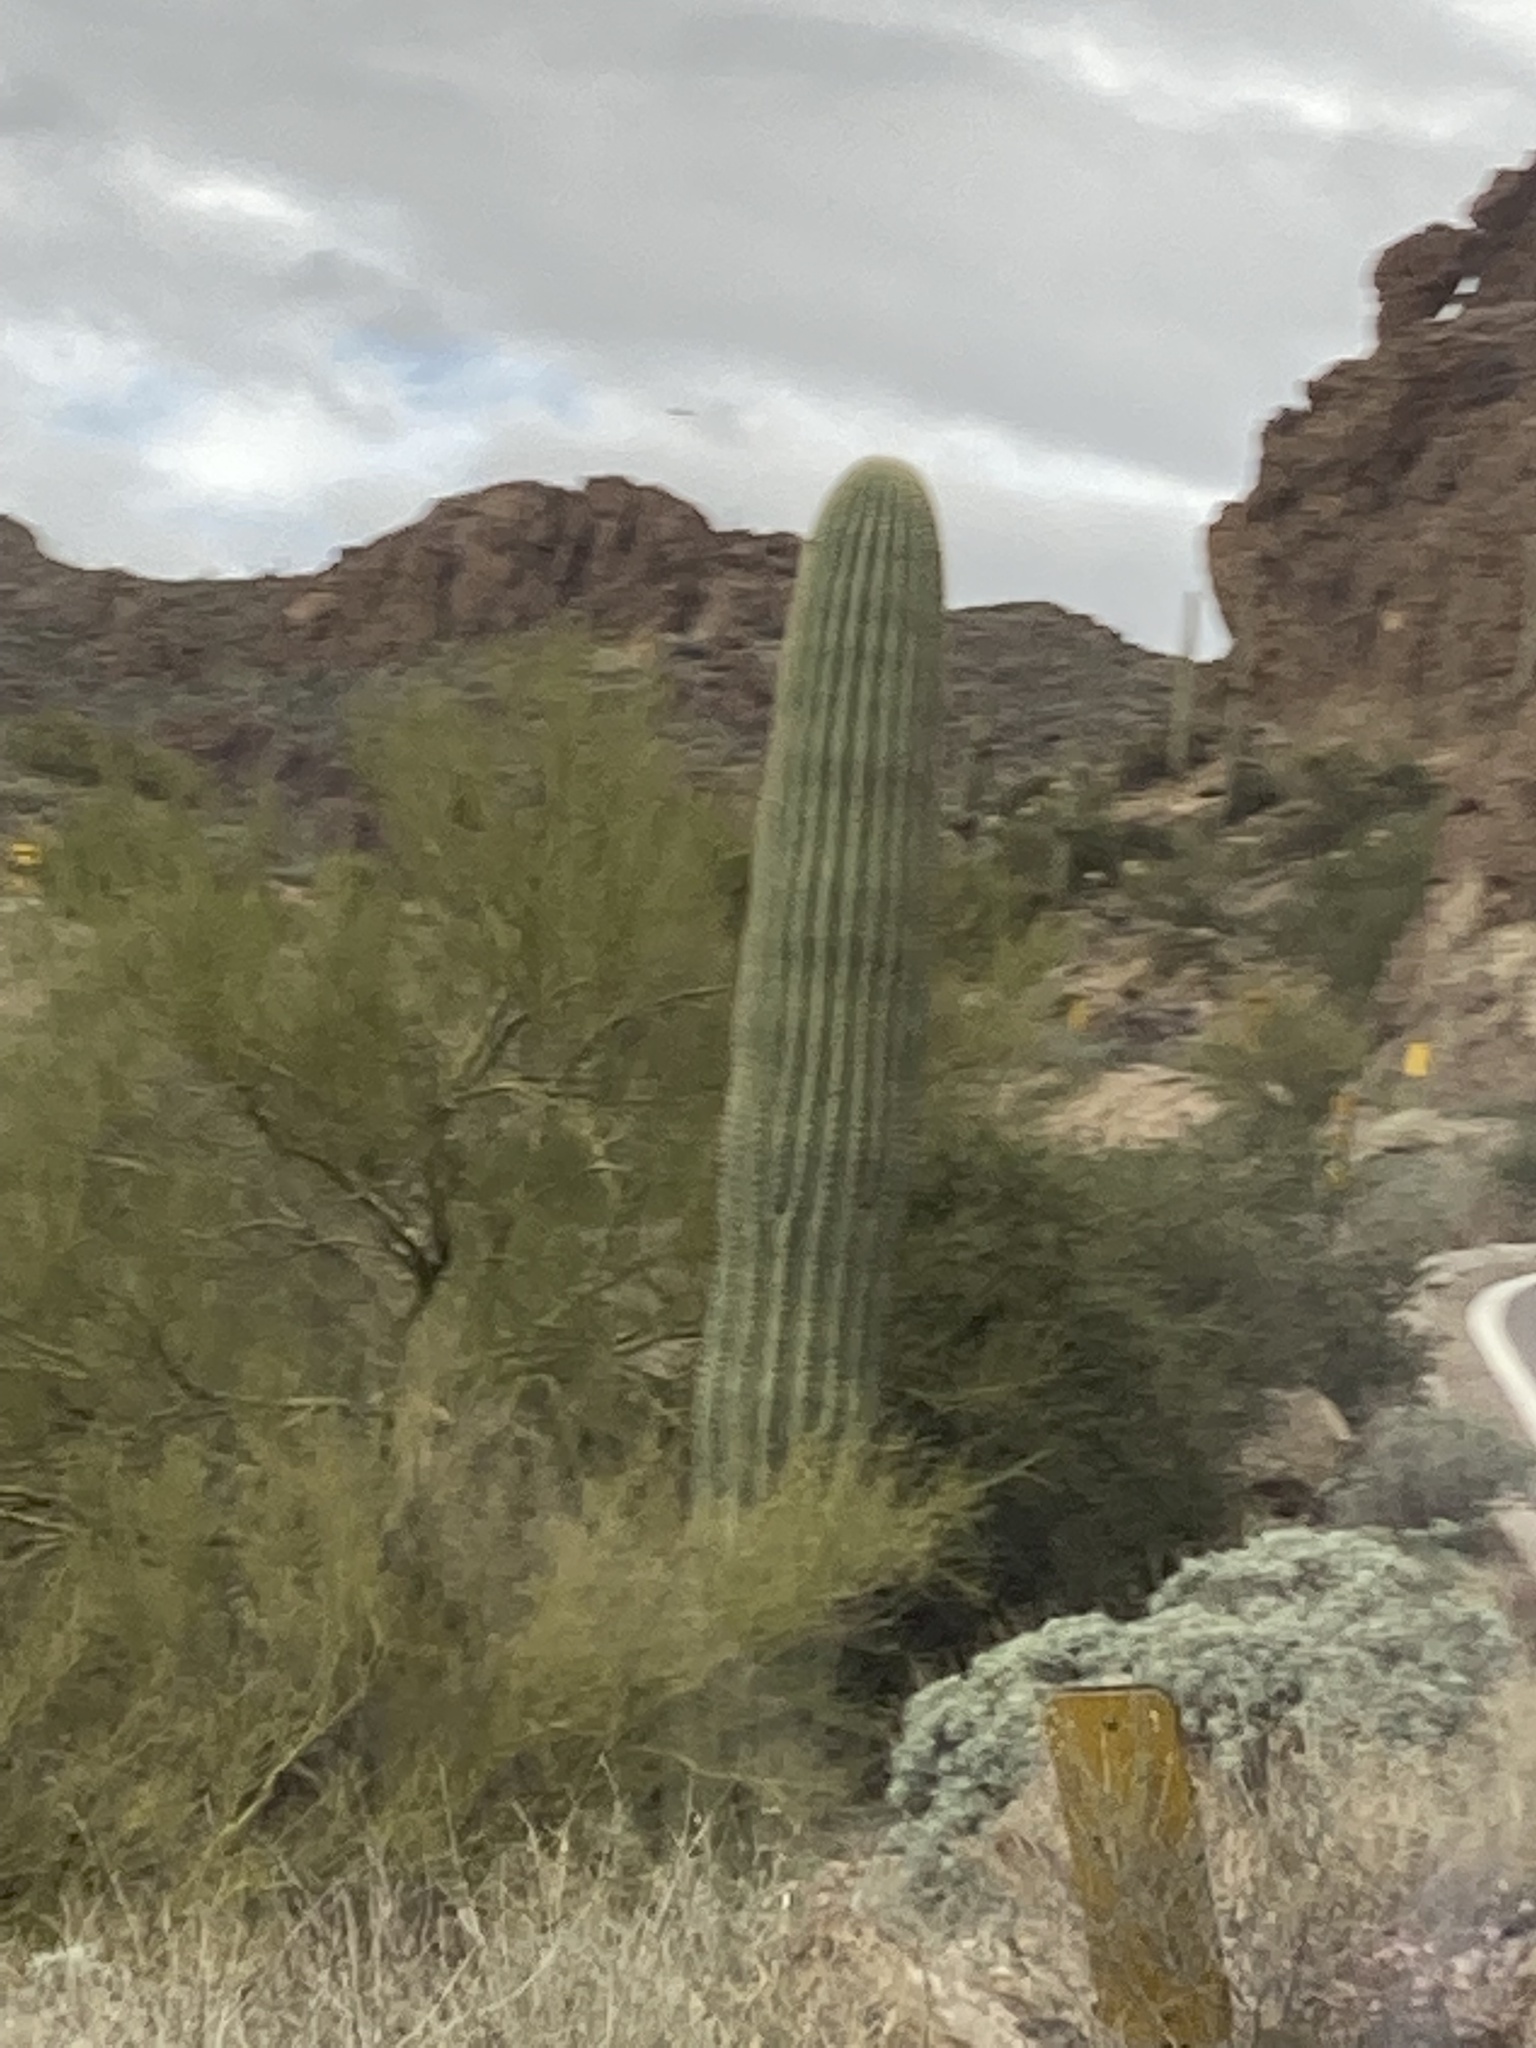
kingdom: Plantae
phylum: Tracheophyta
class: Magnoliopsida
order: Caryophyllales
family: Cactaceae
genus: Carnegiea
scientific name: Carnegiea gigantea
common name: Saguaro
